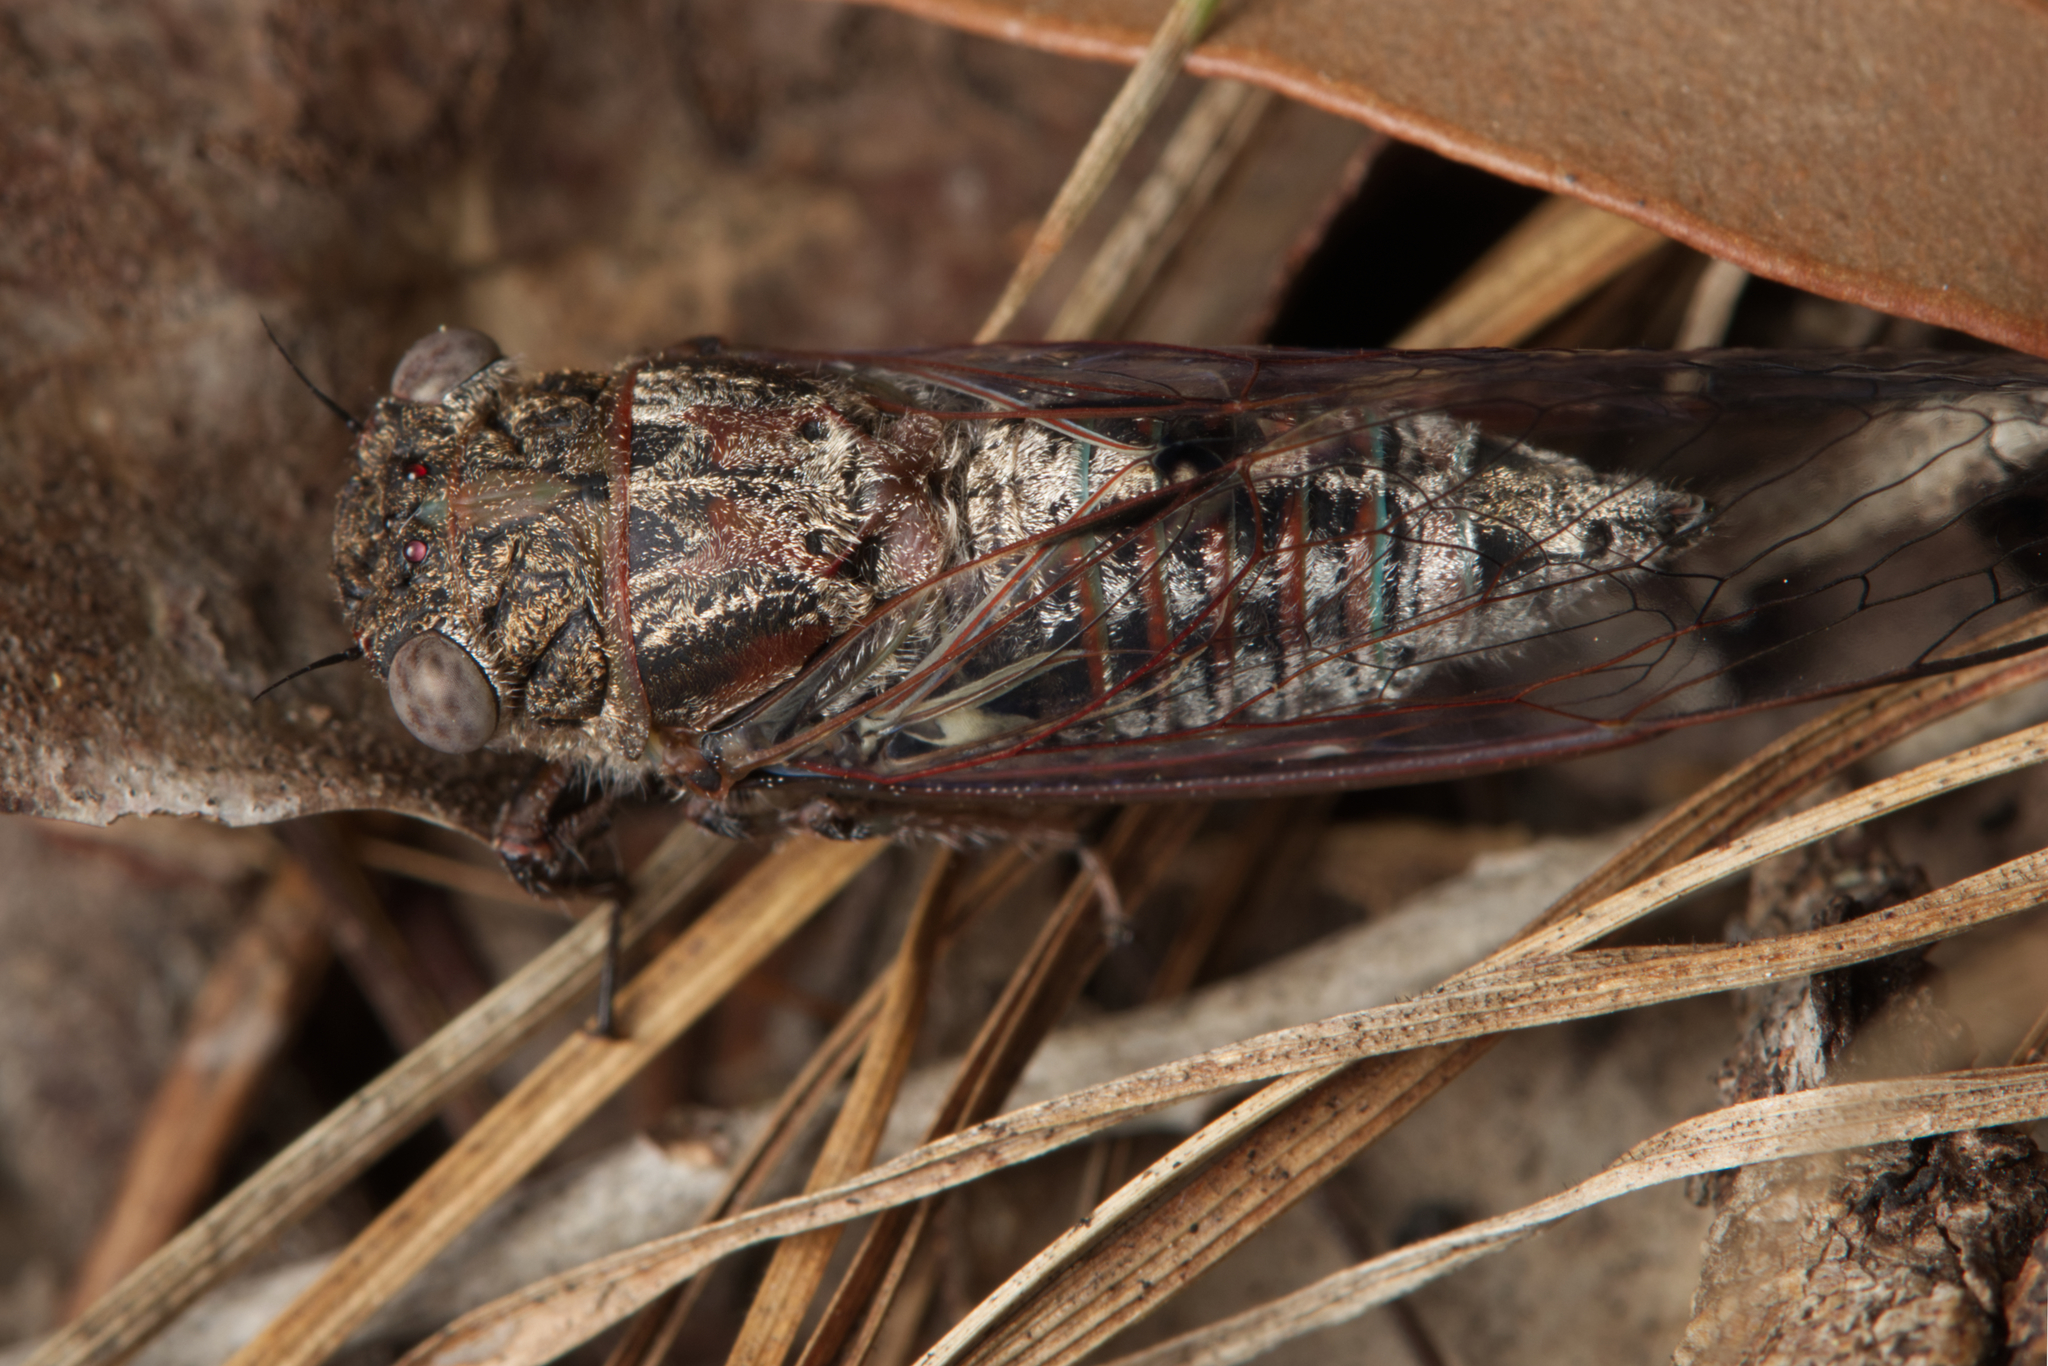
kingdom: Animalia
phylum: Arthropoda
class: Insecta
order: Hemiptera
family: Cicadidae
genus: Atrapsalta
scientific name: Atrapsalta corticina
